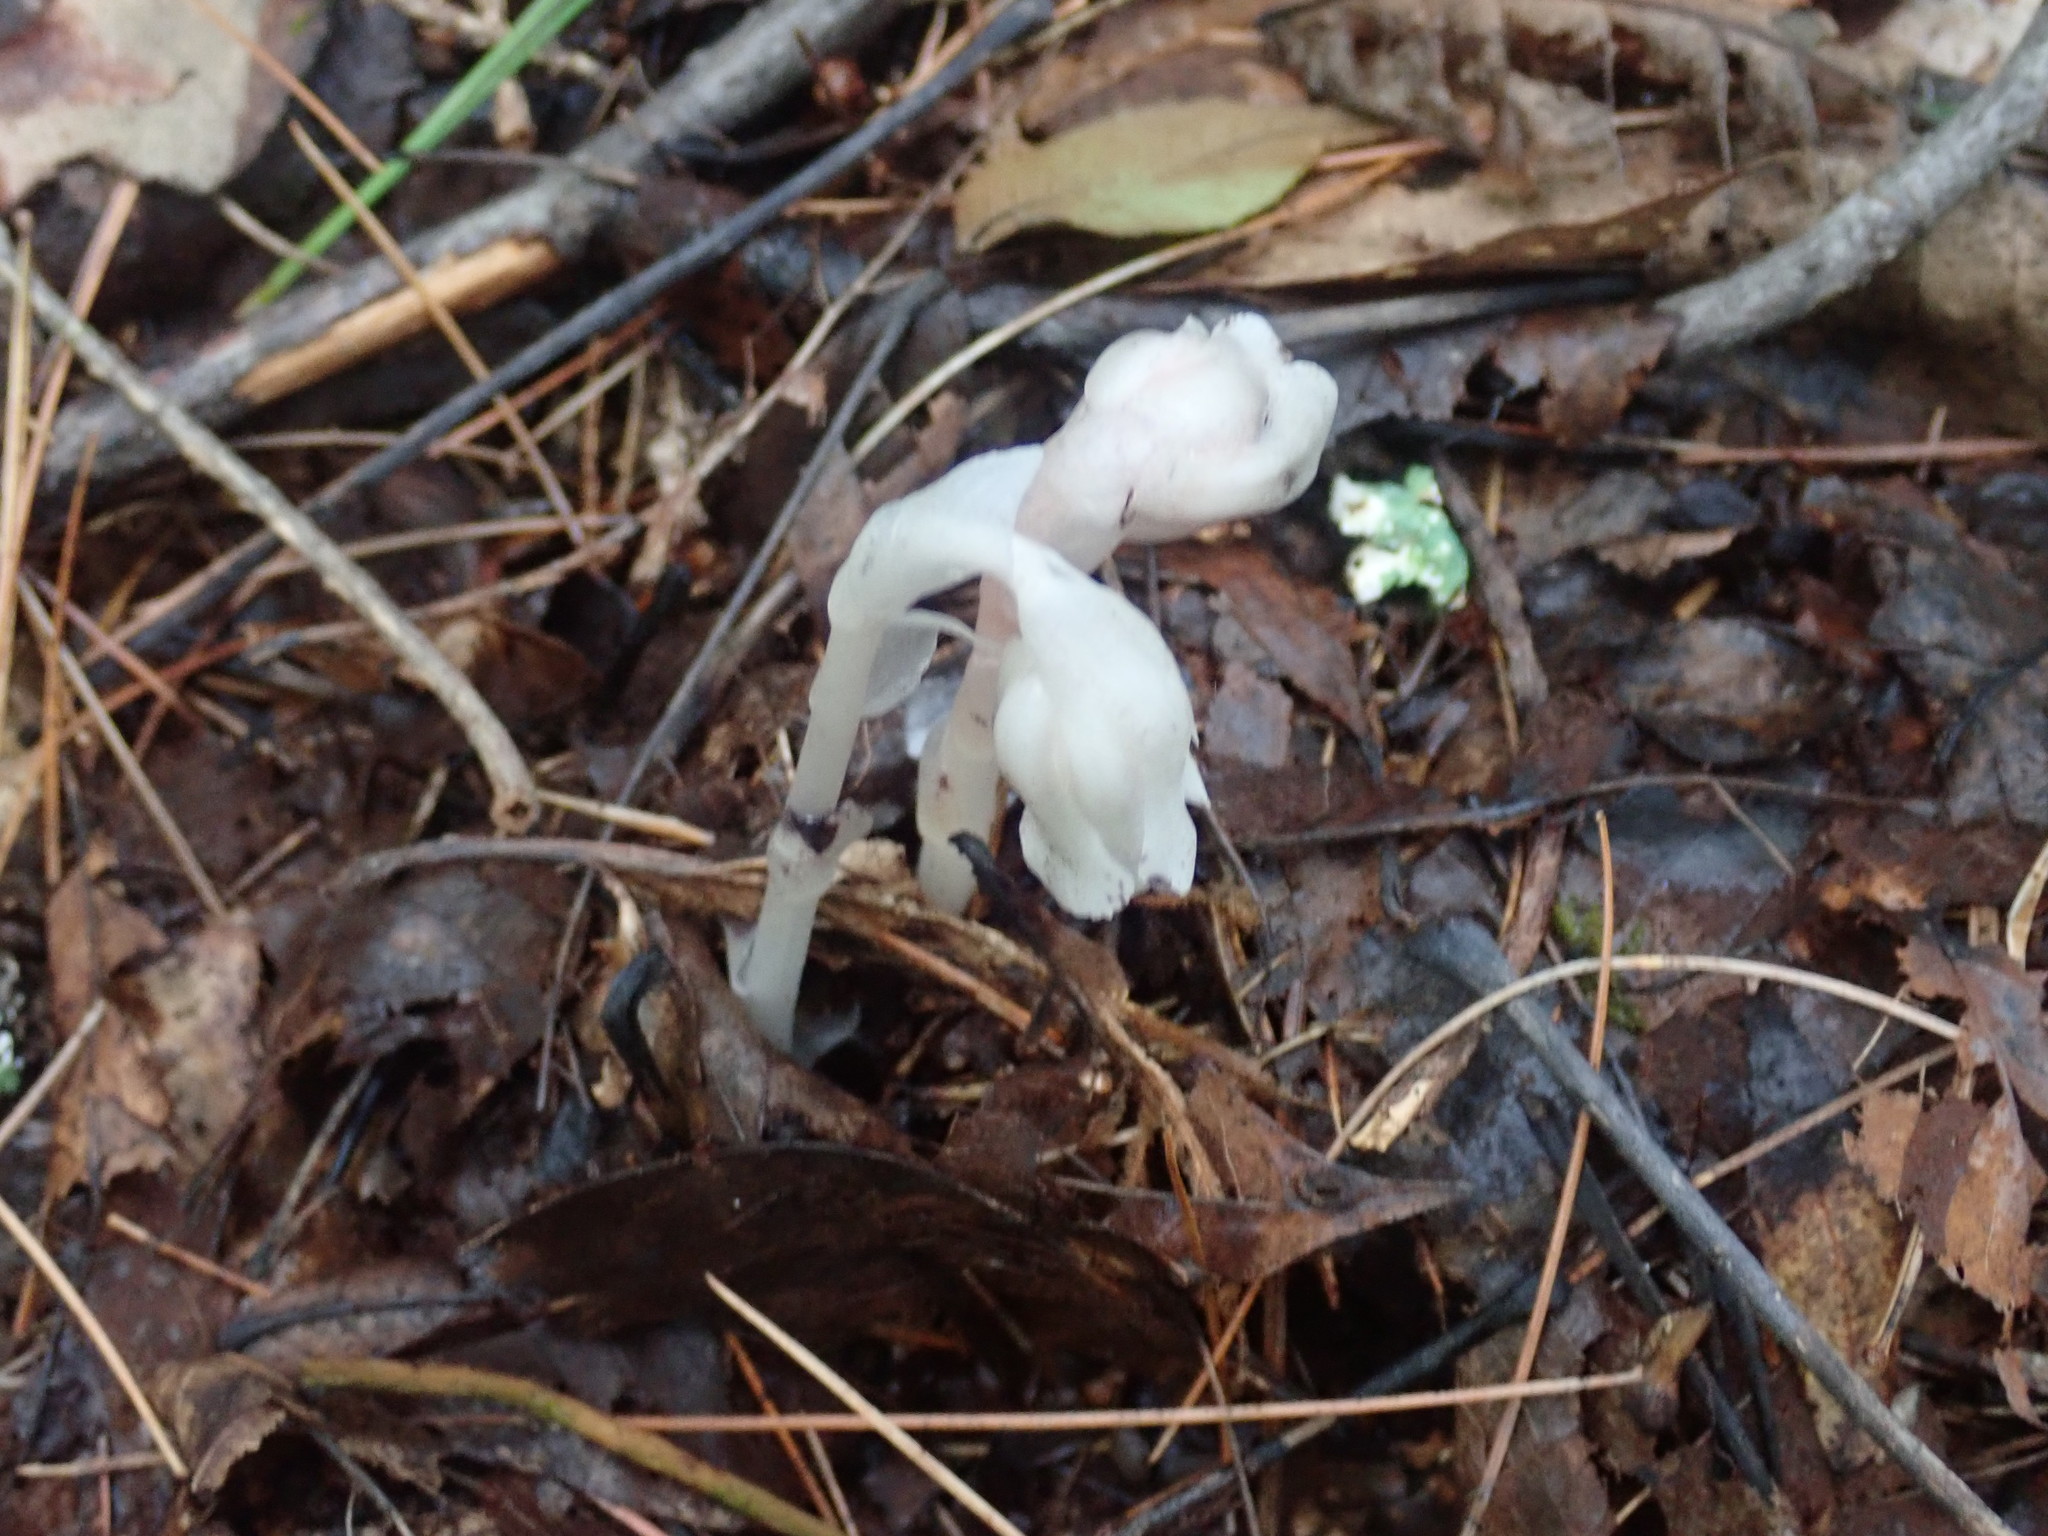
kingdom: Plantae
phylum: Tracheophyta
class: Magnoliopsida
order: Ericales
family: Ericaceae
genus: Monotropa
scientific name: Monotropa uniflora
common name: Convulsion root
